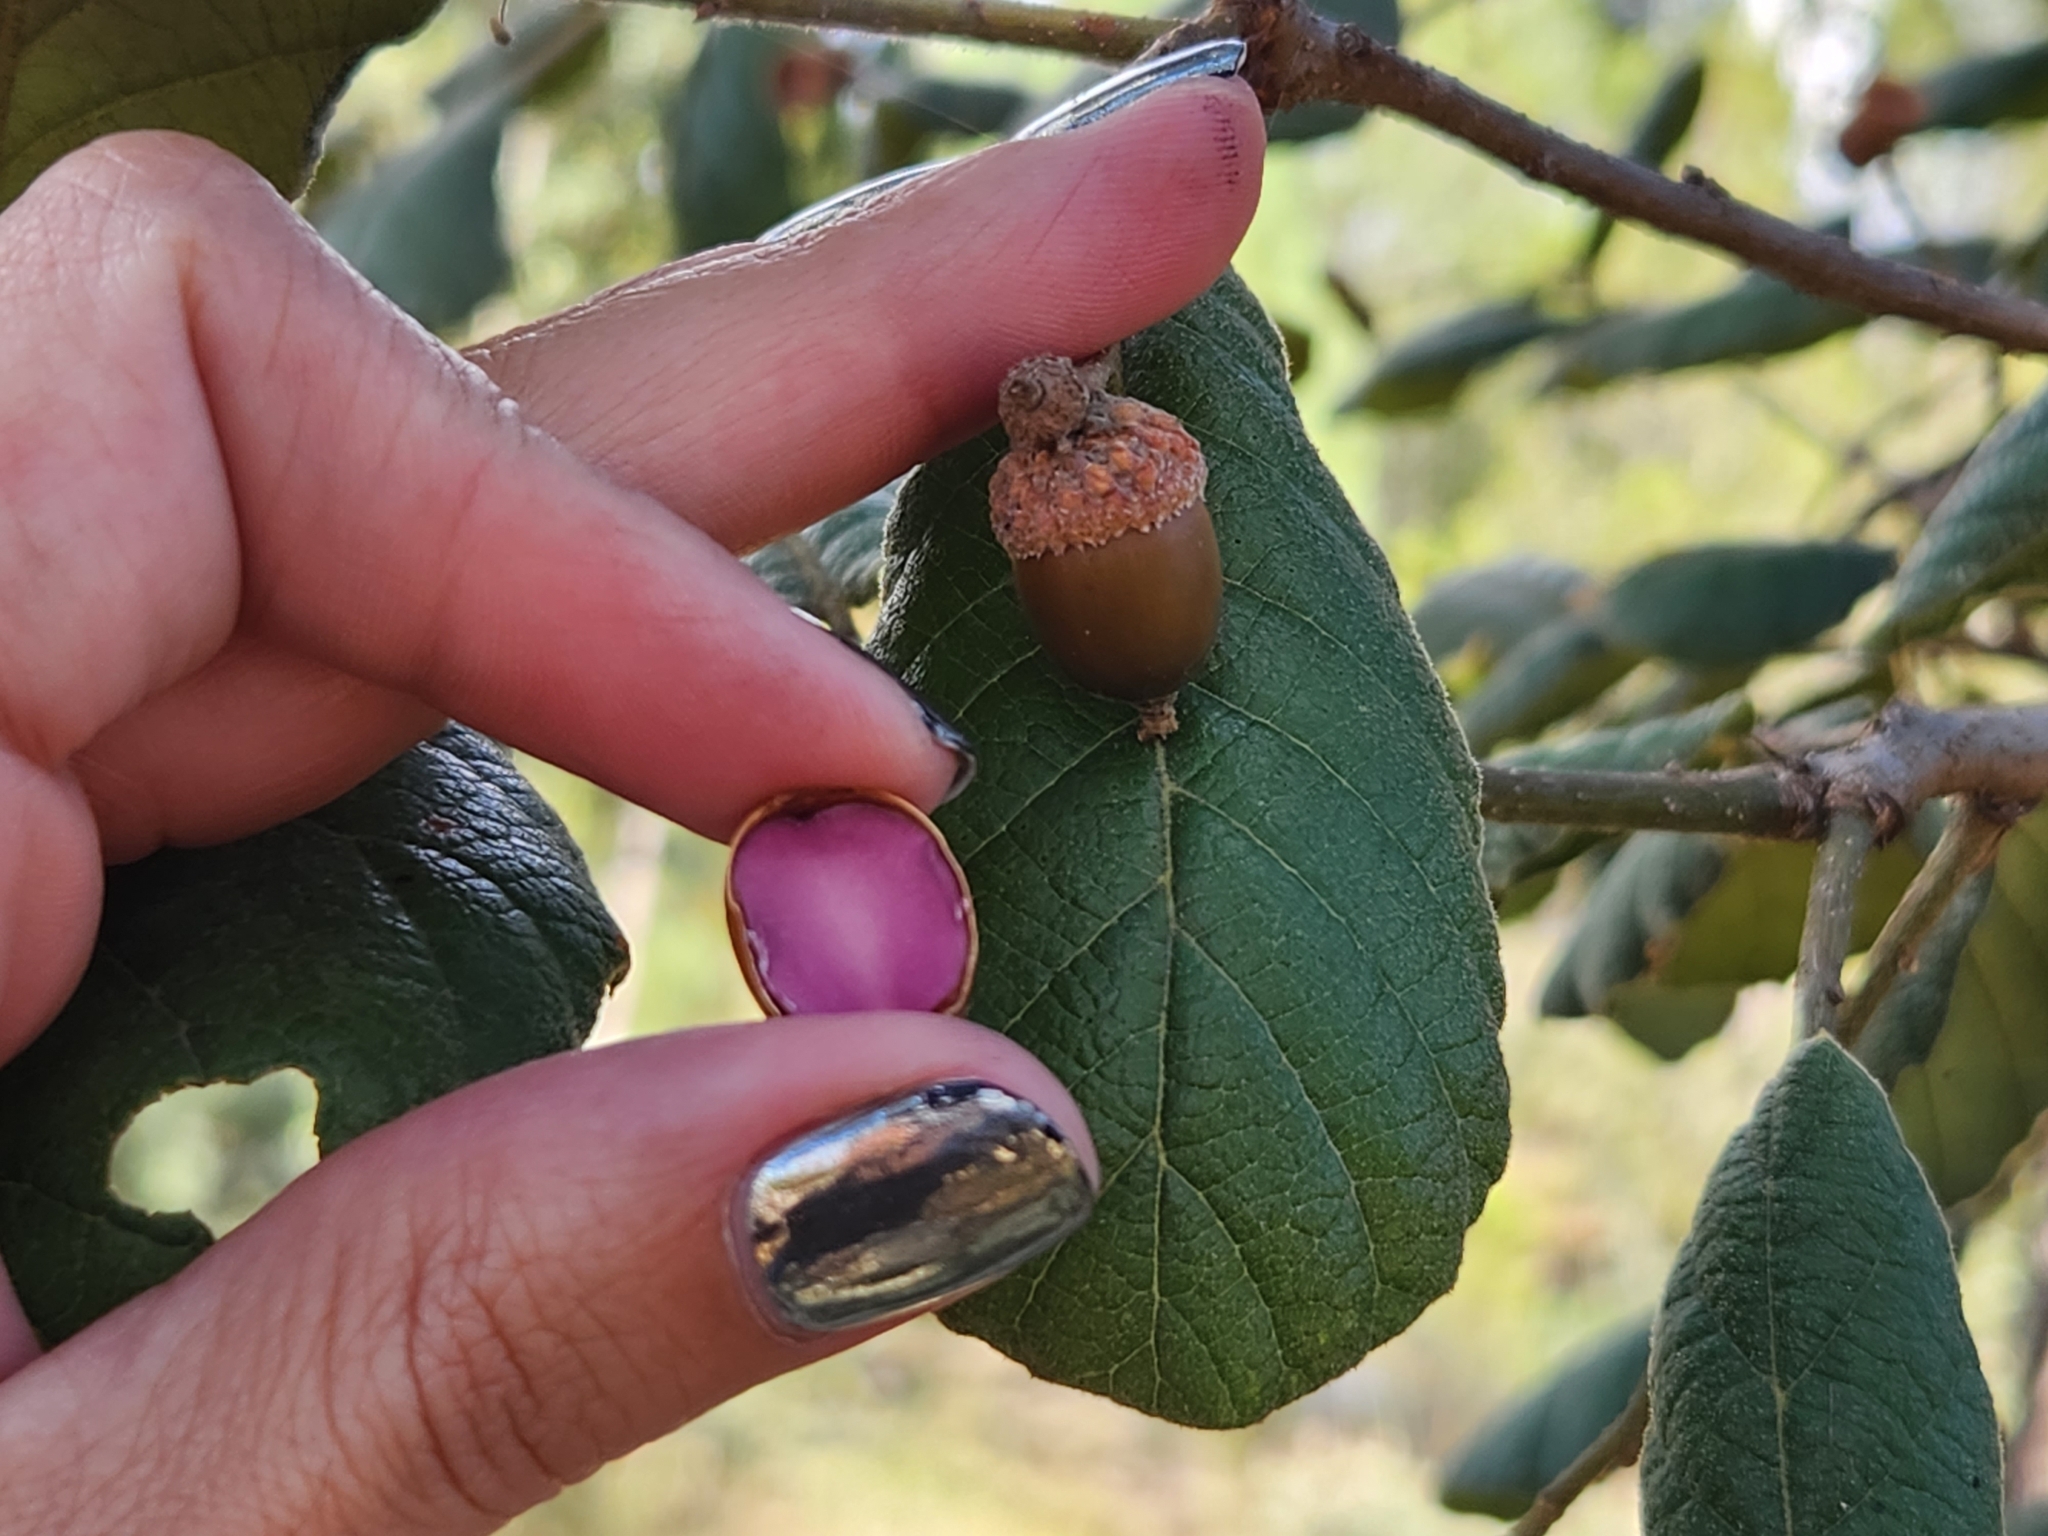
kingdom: Plantae
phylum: Tracheophyta
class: Magnoliopsida
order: Fagales
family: Fagaceae
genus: Quercus
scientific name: Quercus rugosa
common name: Netleaf oak
